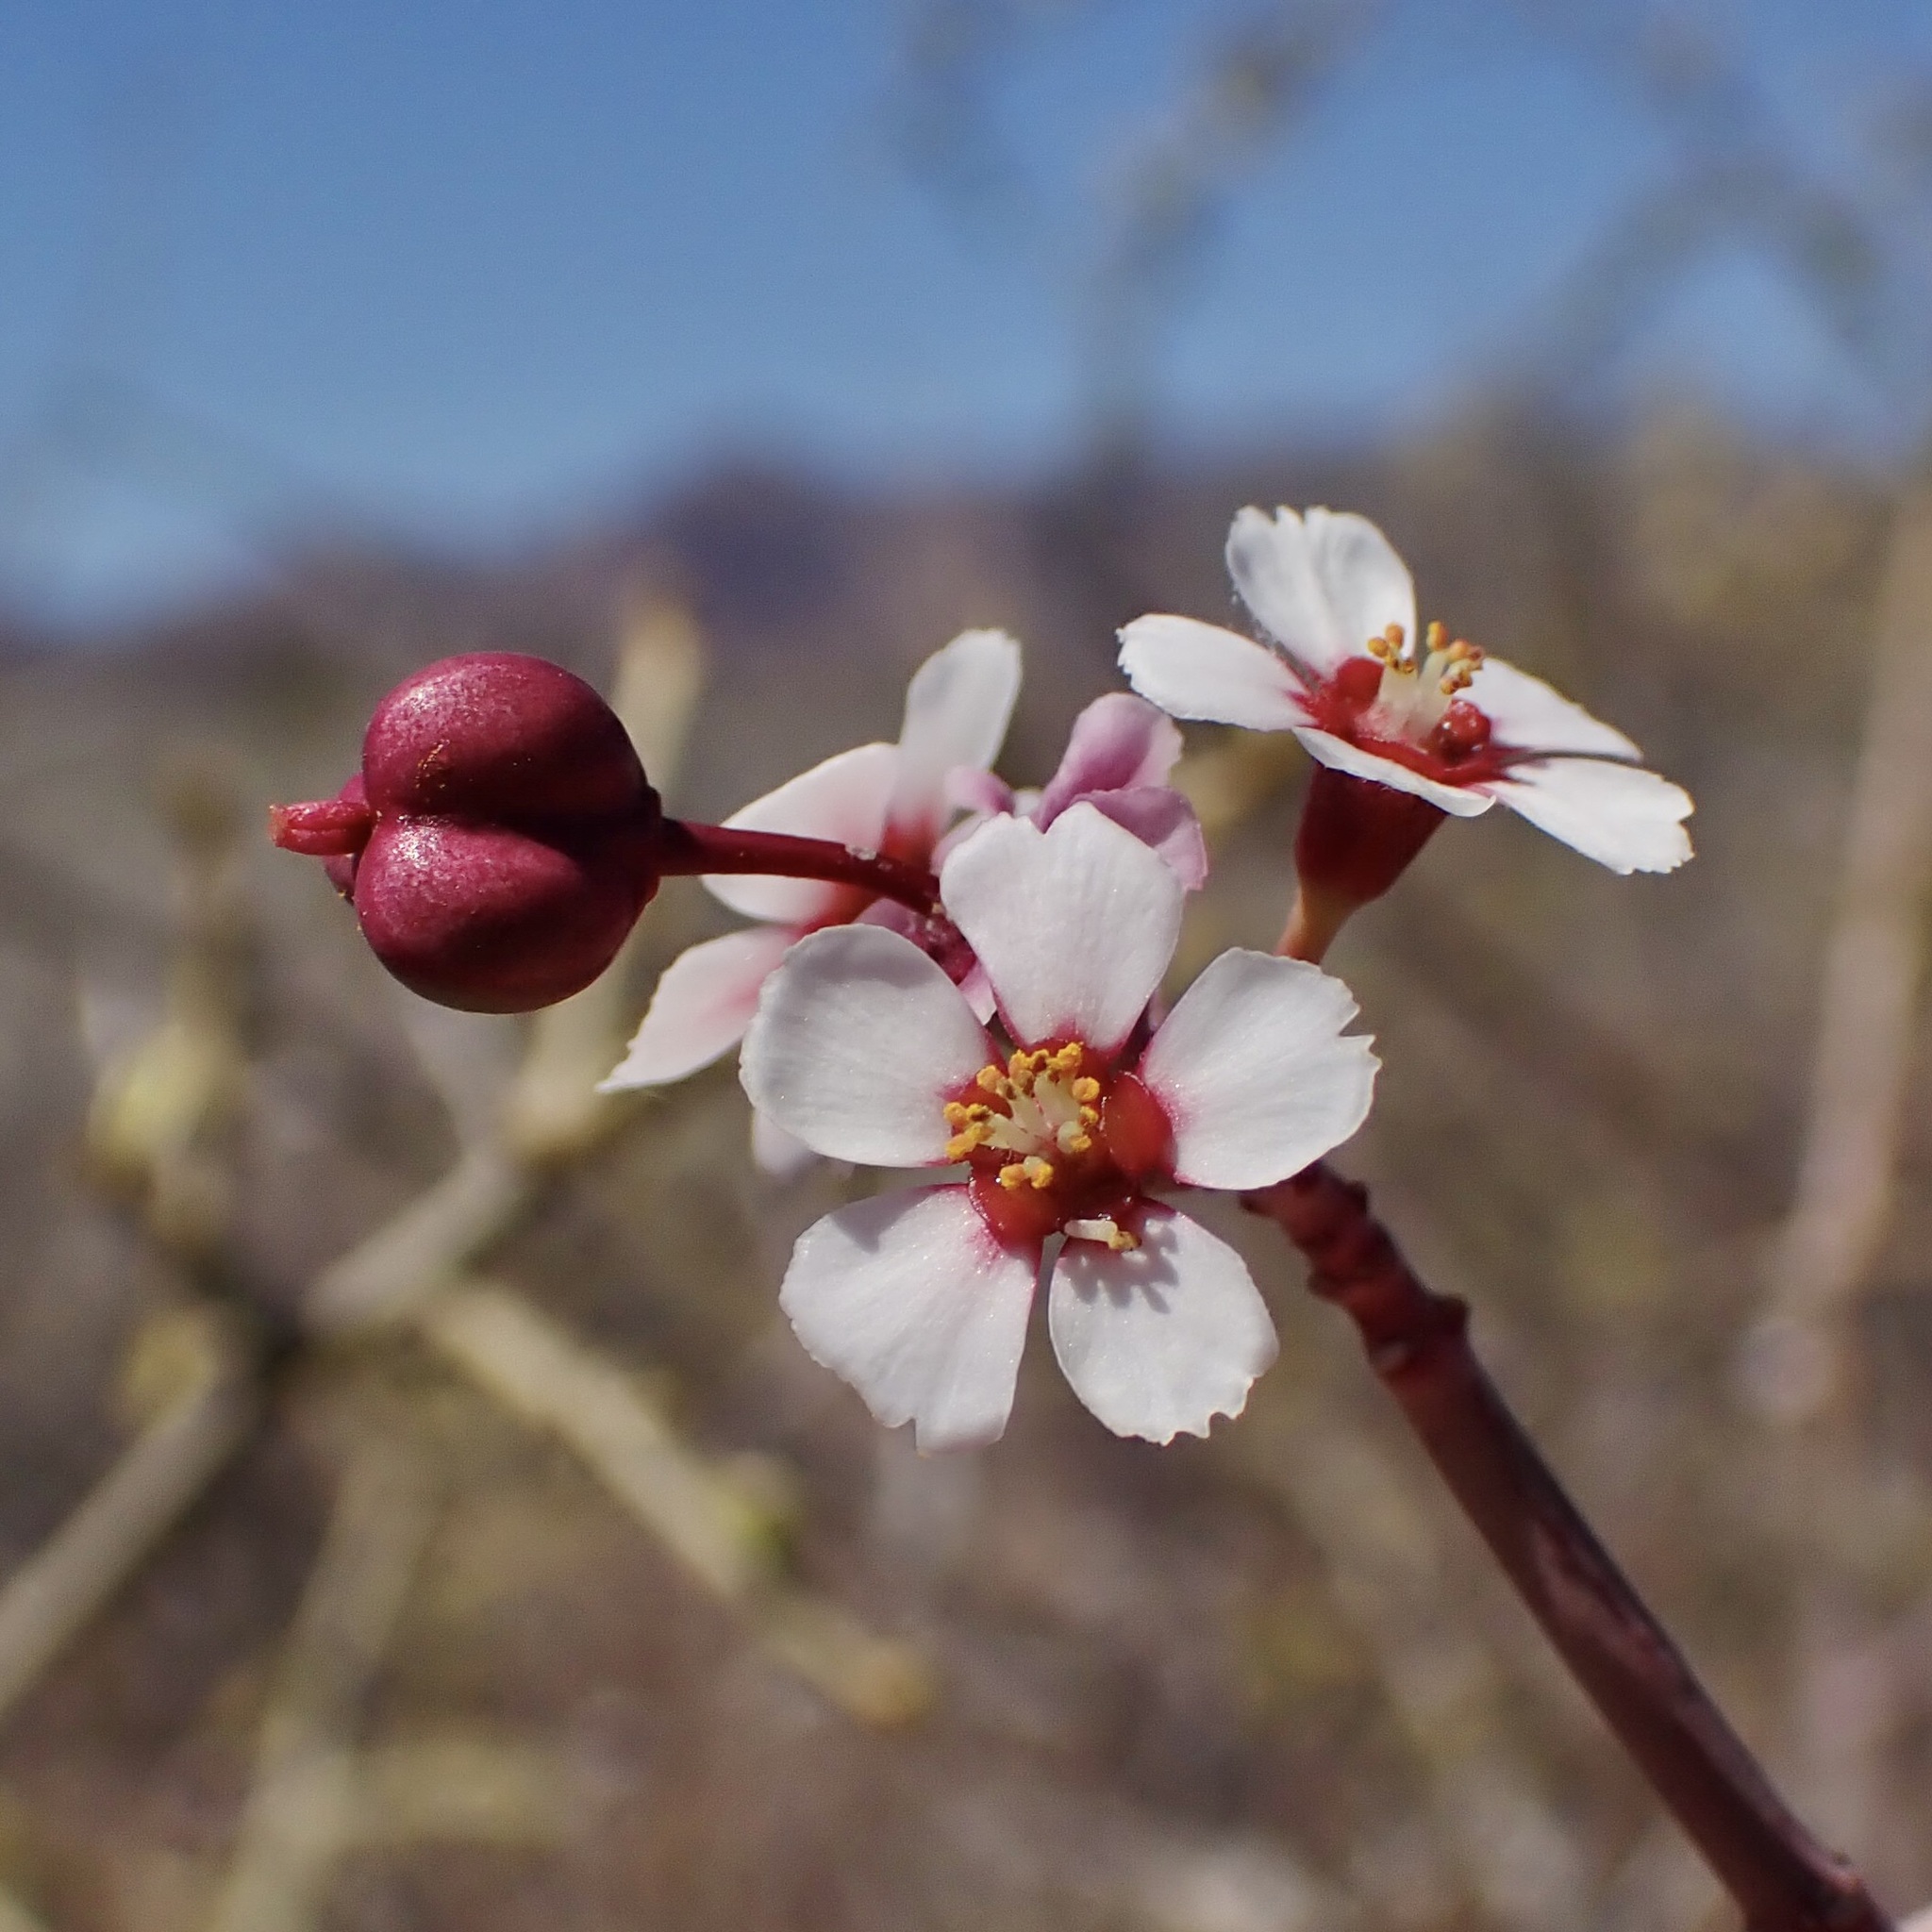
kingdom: Plantae
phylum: Tracheophyta
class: Magnoliopsida
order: Malpighiales
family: Euphorbiaceae
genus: Euphorbia
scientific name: Euphorbia xanti
